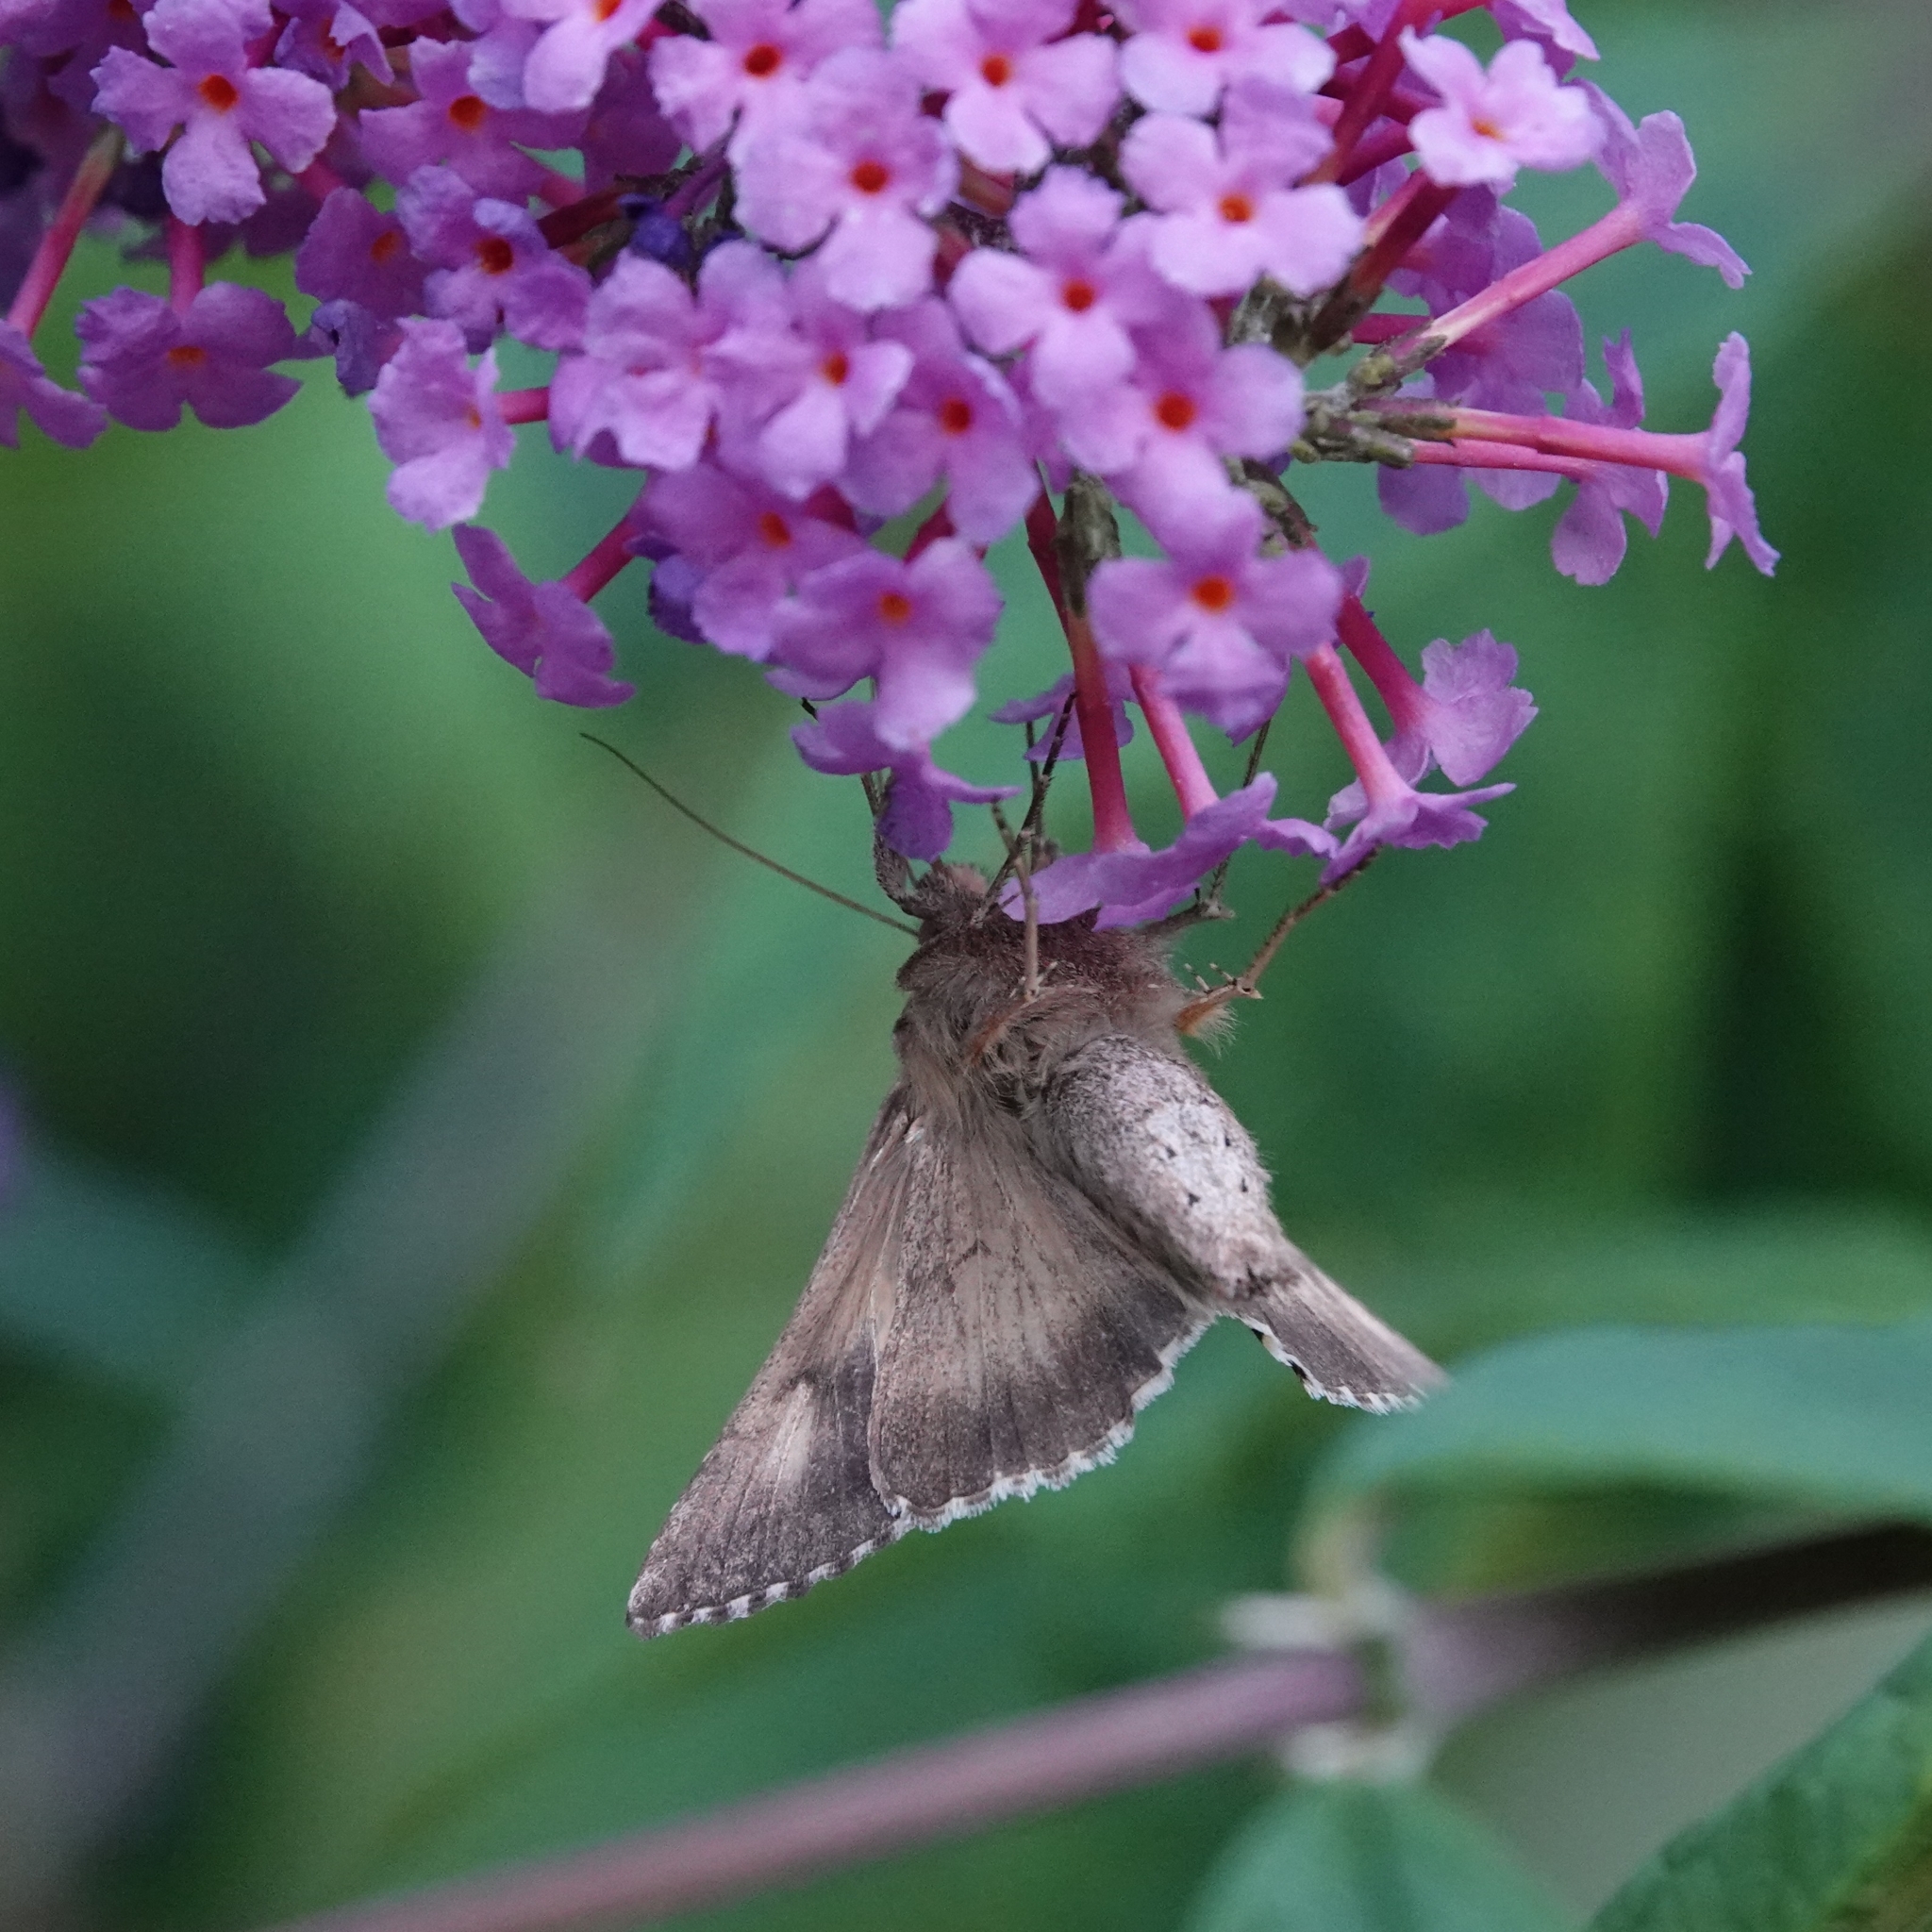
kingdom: Animalia
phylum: Arthropoda
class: Insecta
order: Lepidoptera
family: Noctuidae
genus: Autographa
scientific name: Autographa gamma
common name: Silver y
